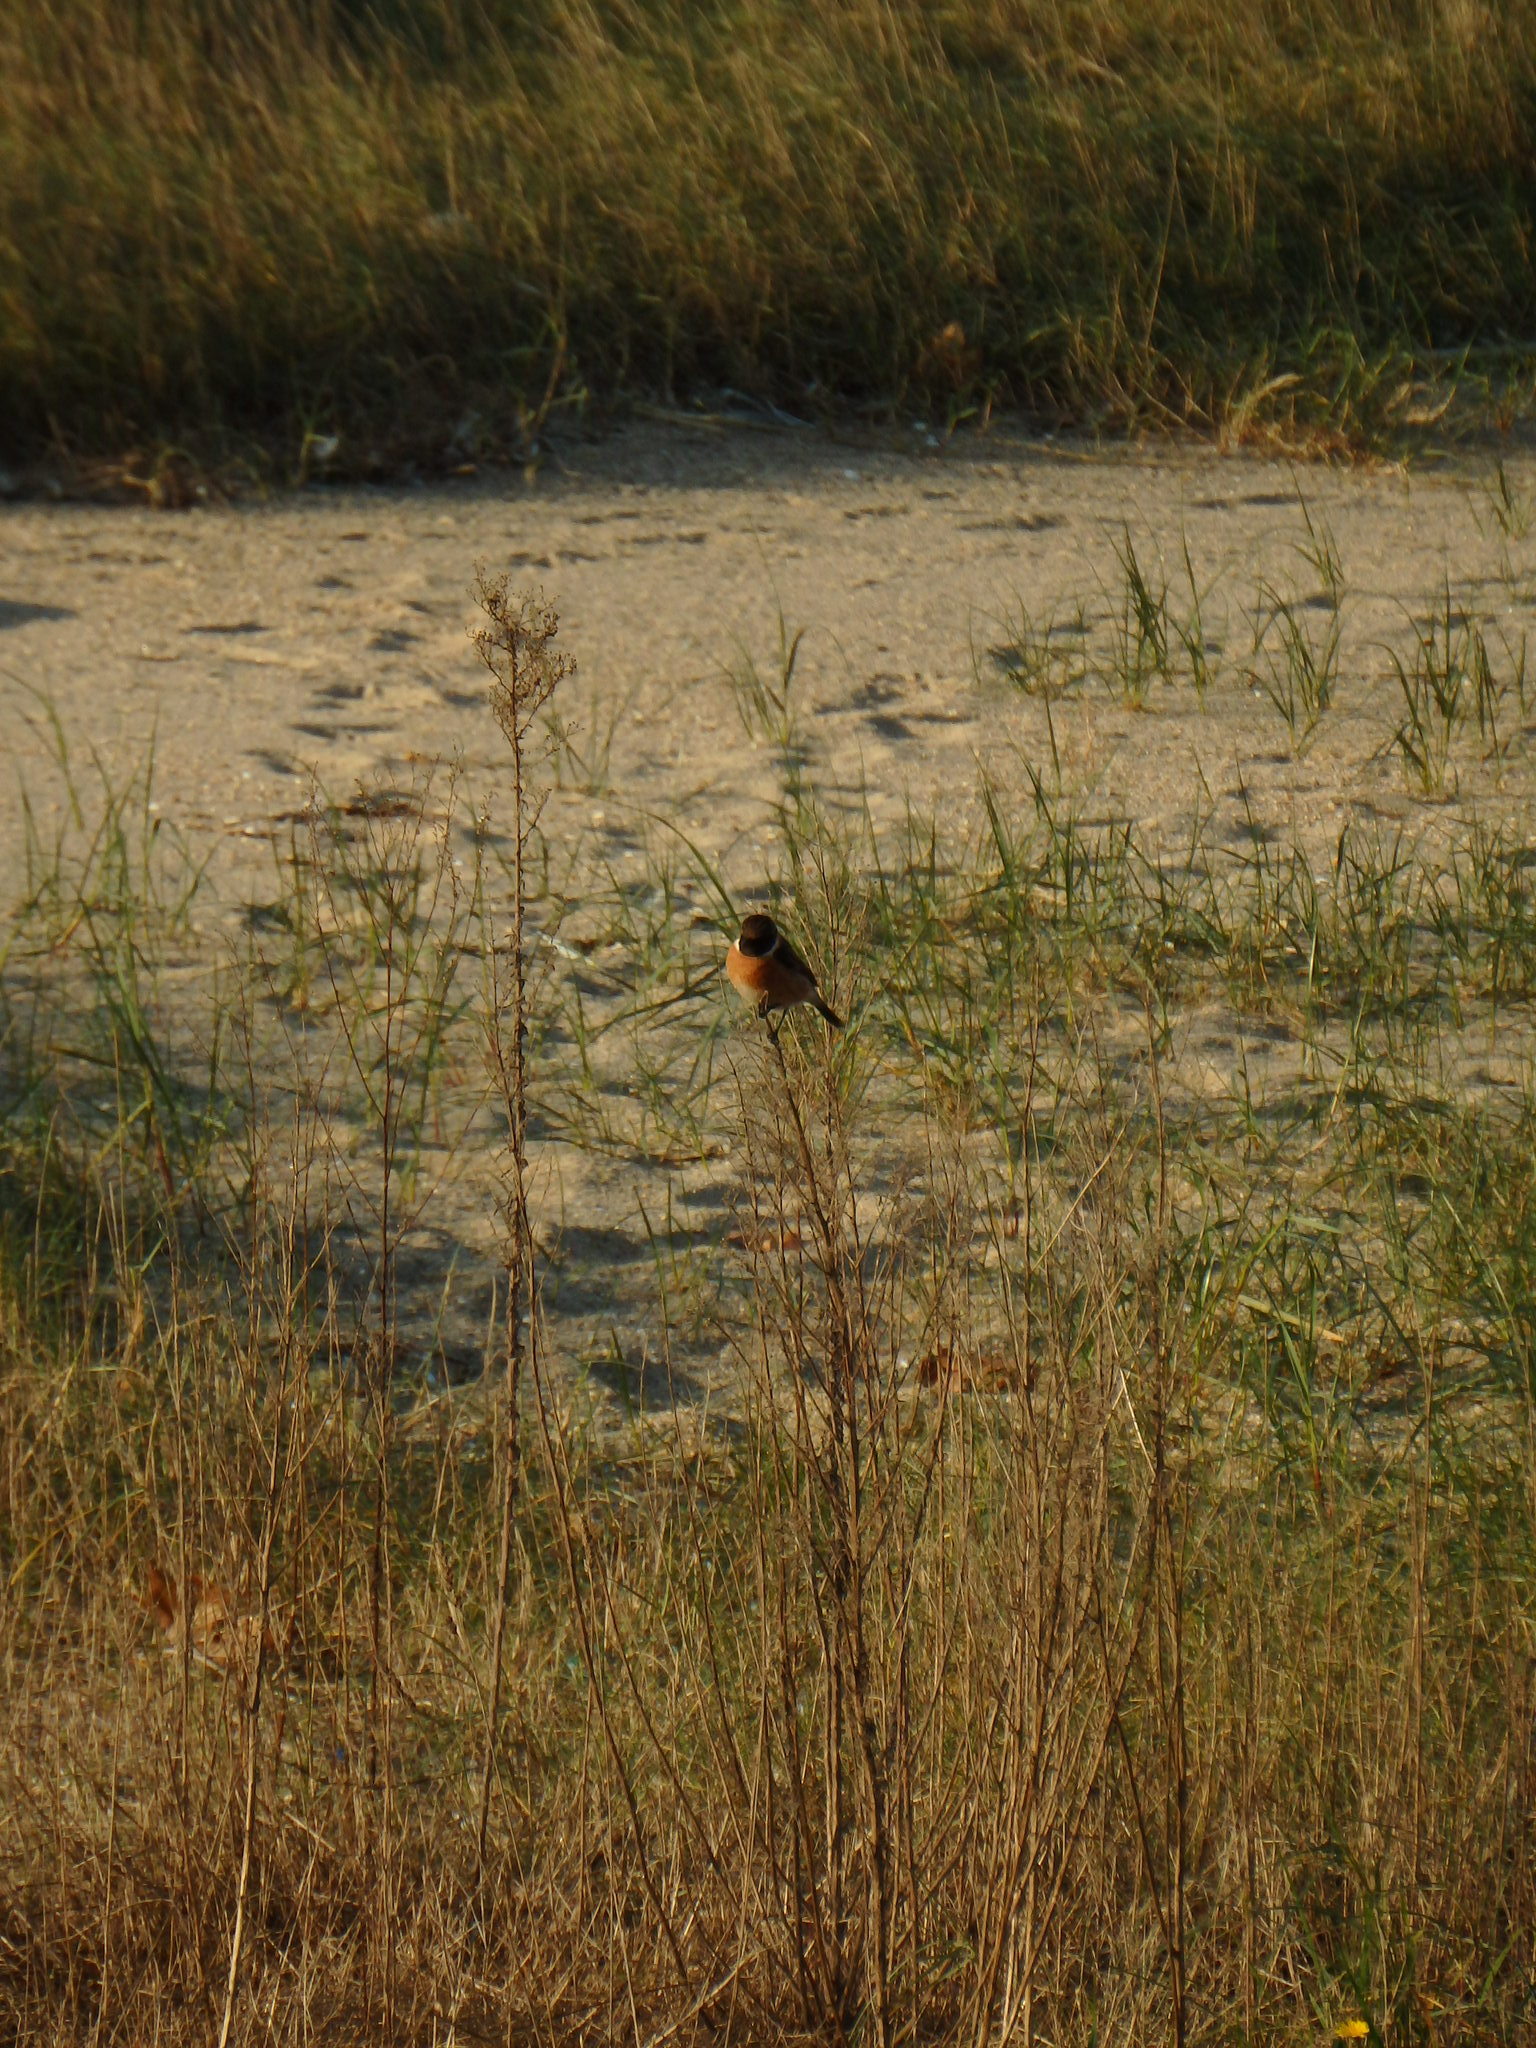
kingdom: Animalia
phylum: Chordata
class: Aves
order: Passeriformes
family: Muscicapidae
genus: Saxicola
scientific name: Saxicola rubicola
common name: European stonechat
